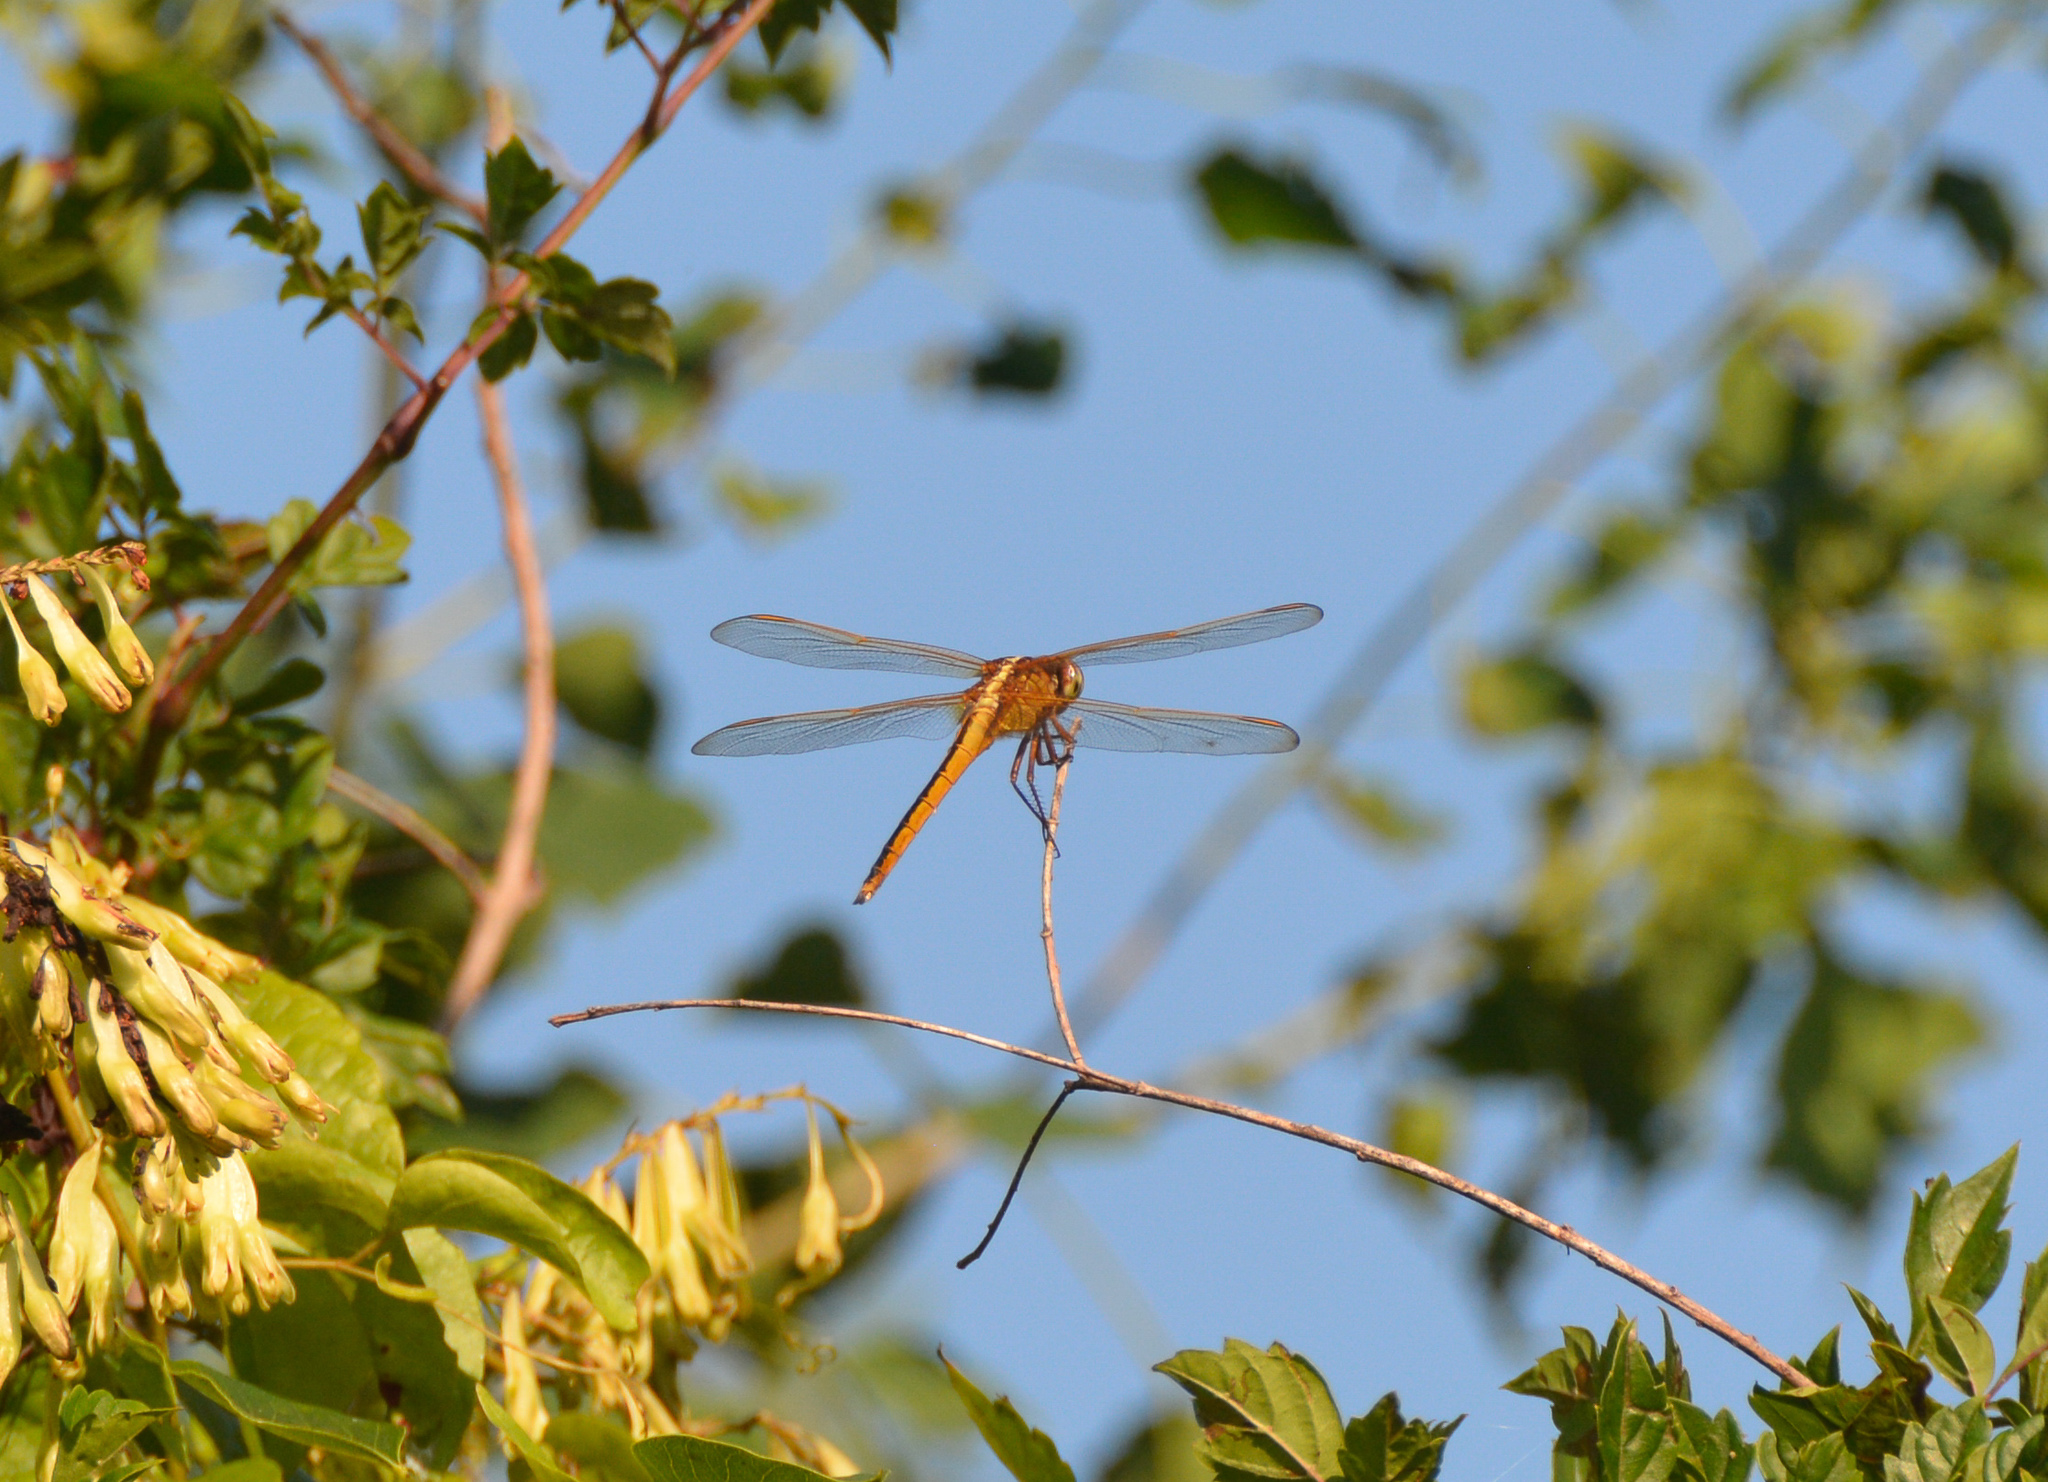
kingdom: Animalia
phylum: Arthropoda
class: Insecta
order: Odonata
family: Libellulidae
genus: Libellula
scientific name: Libellula needhami
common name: Needham's skimmer
